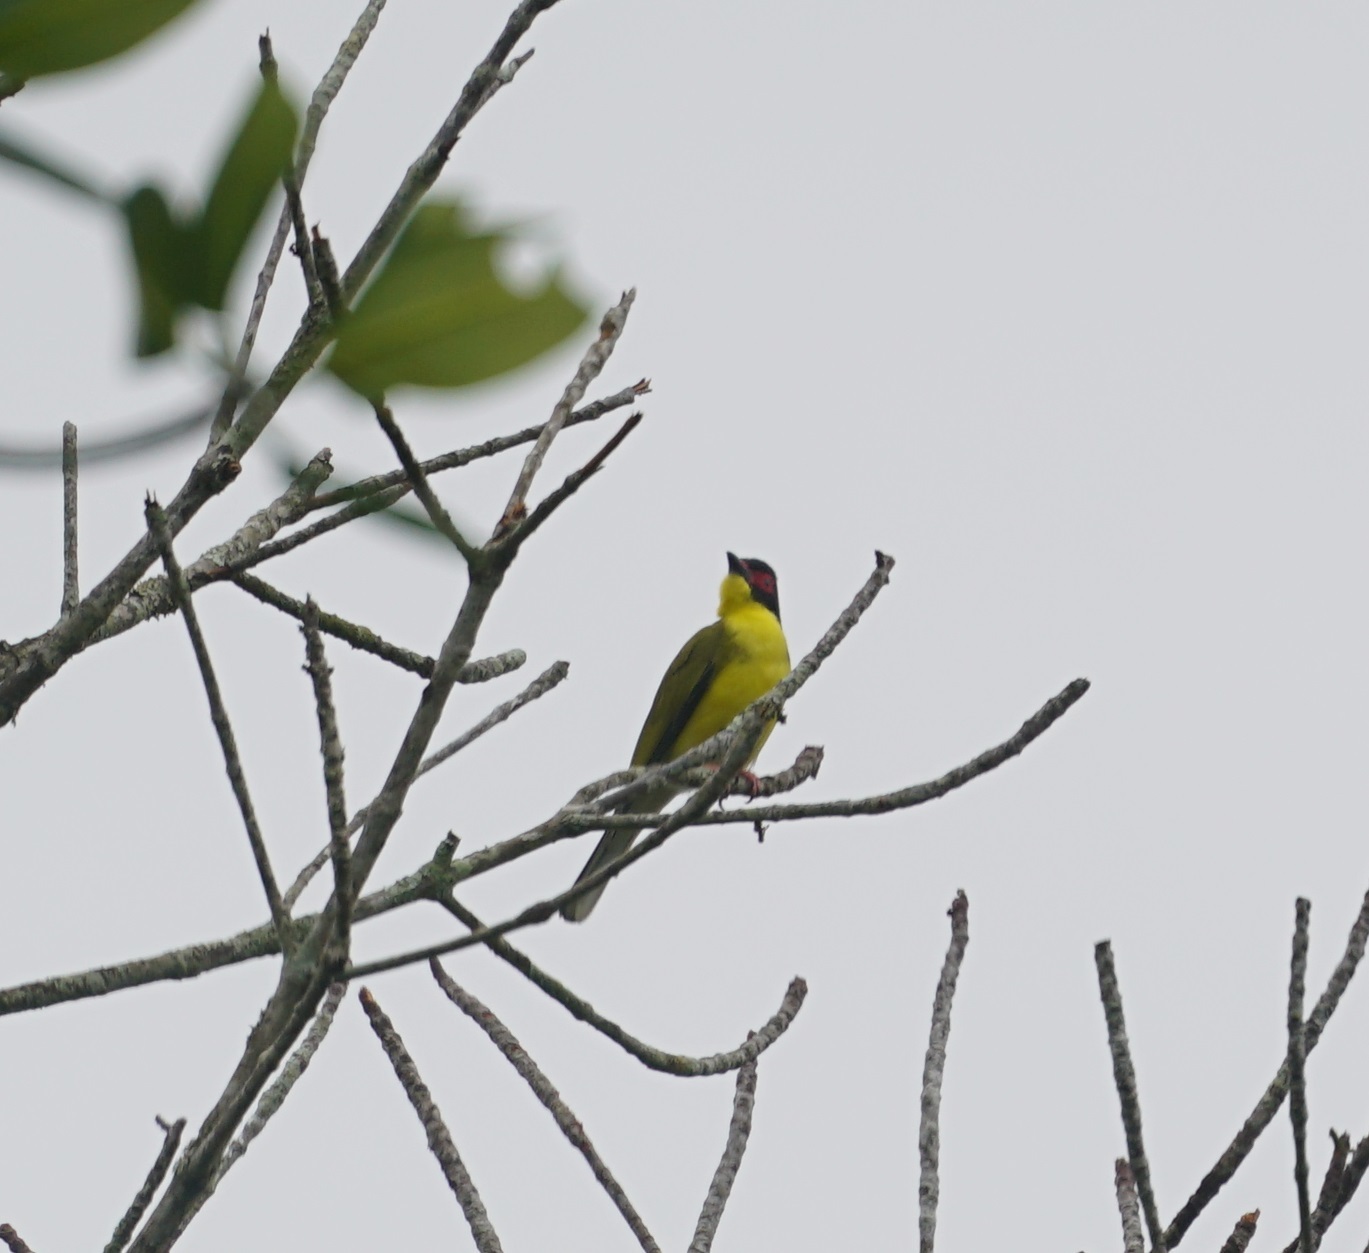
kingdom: Animalia
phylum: Chordata
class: Aves
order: Passeriformes
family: Oriolidae
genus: Sphecotheres
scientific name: Sphecotheres vieilloti
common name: Australasian figbird
